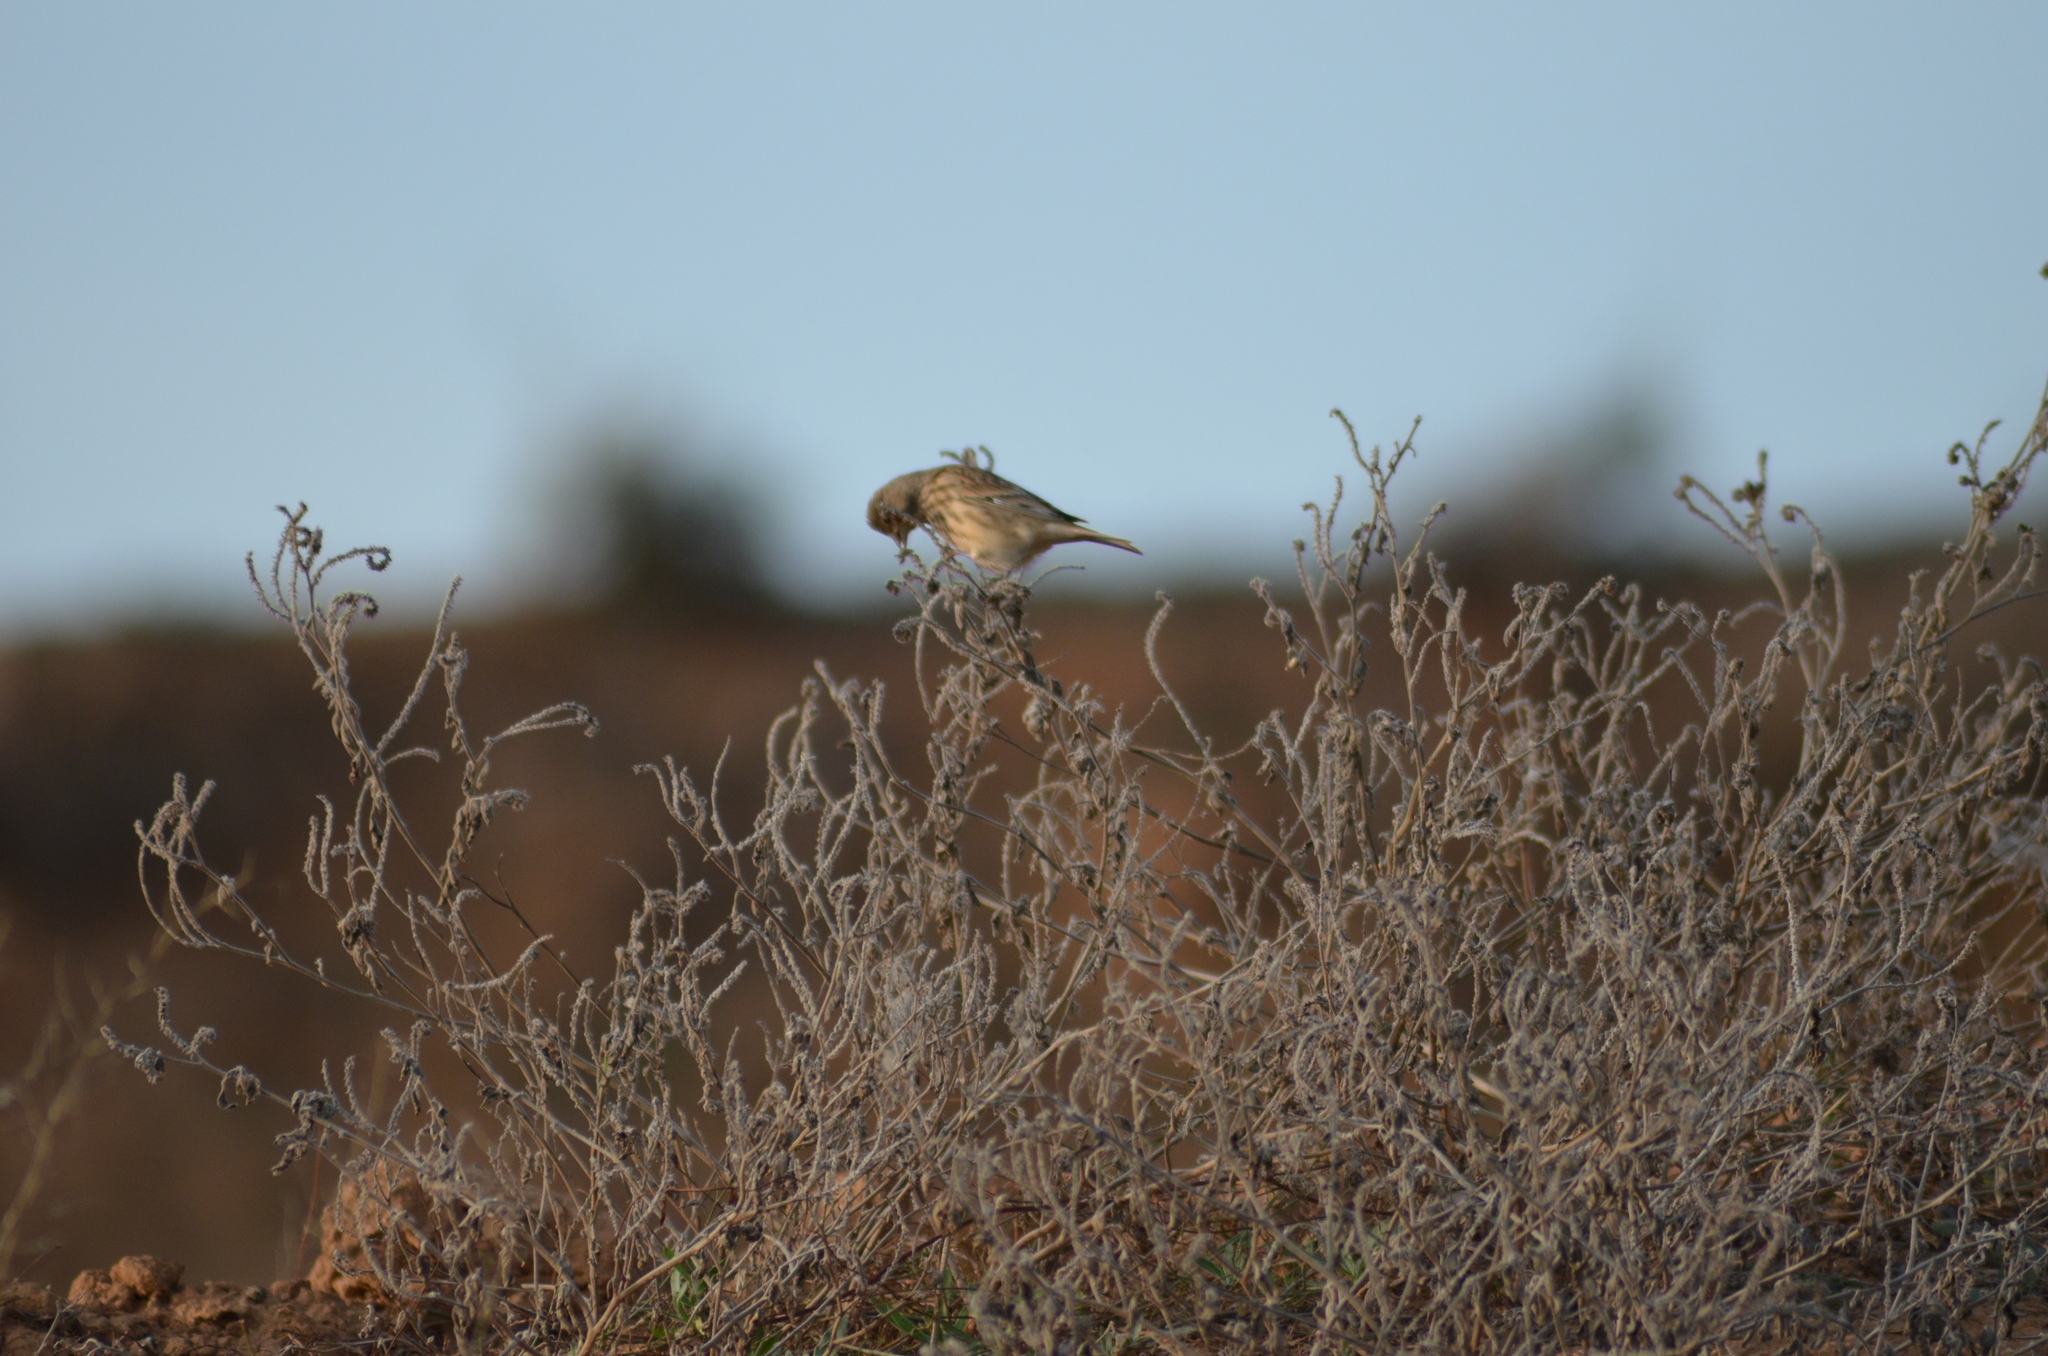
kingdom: Animalia
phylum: Chordata
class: Aves
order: Passeriformes
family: Fringillidae
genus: Linaria
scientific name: Linaria cannabina
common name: Common linnet
